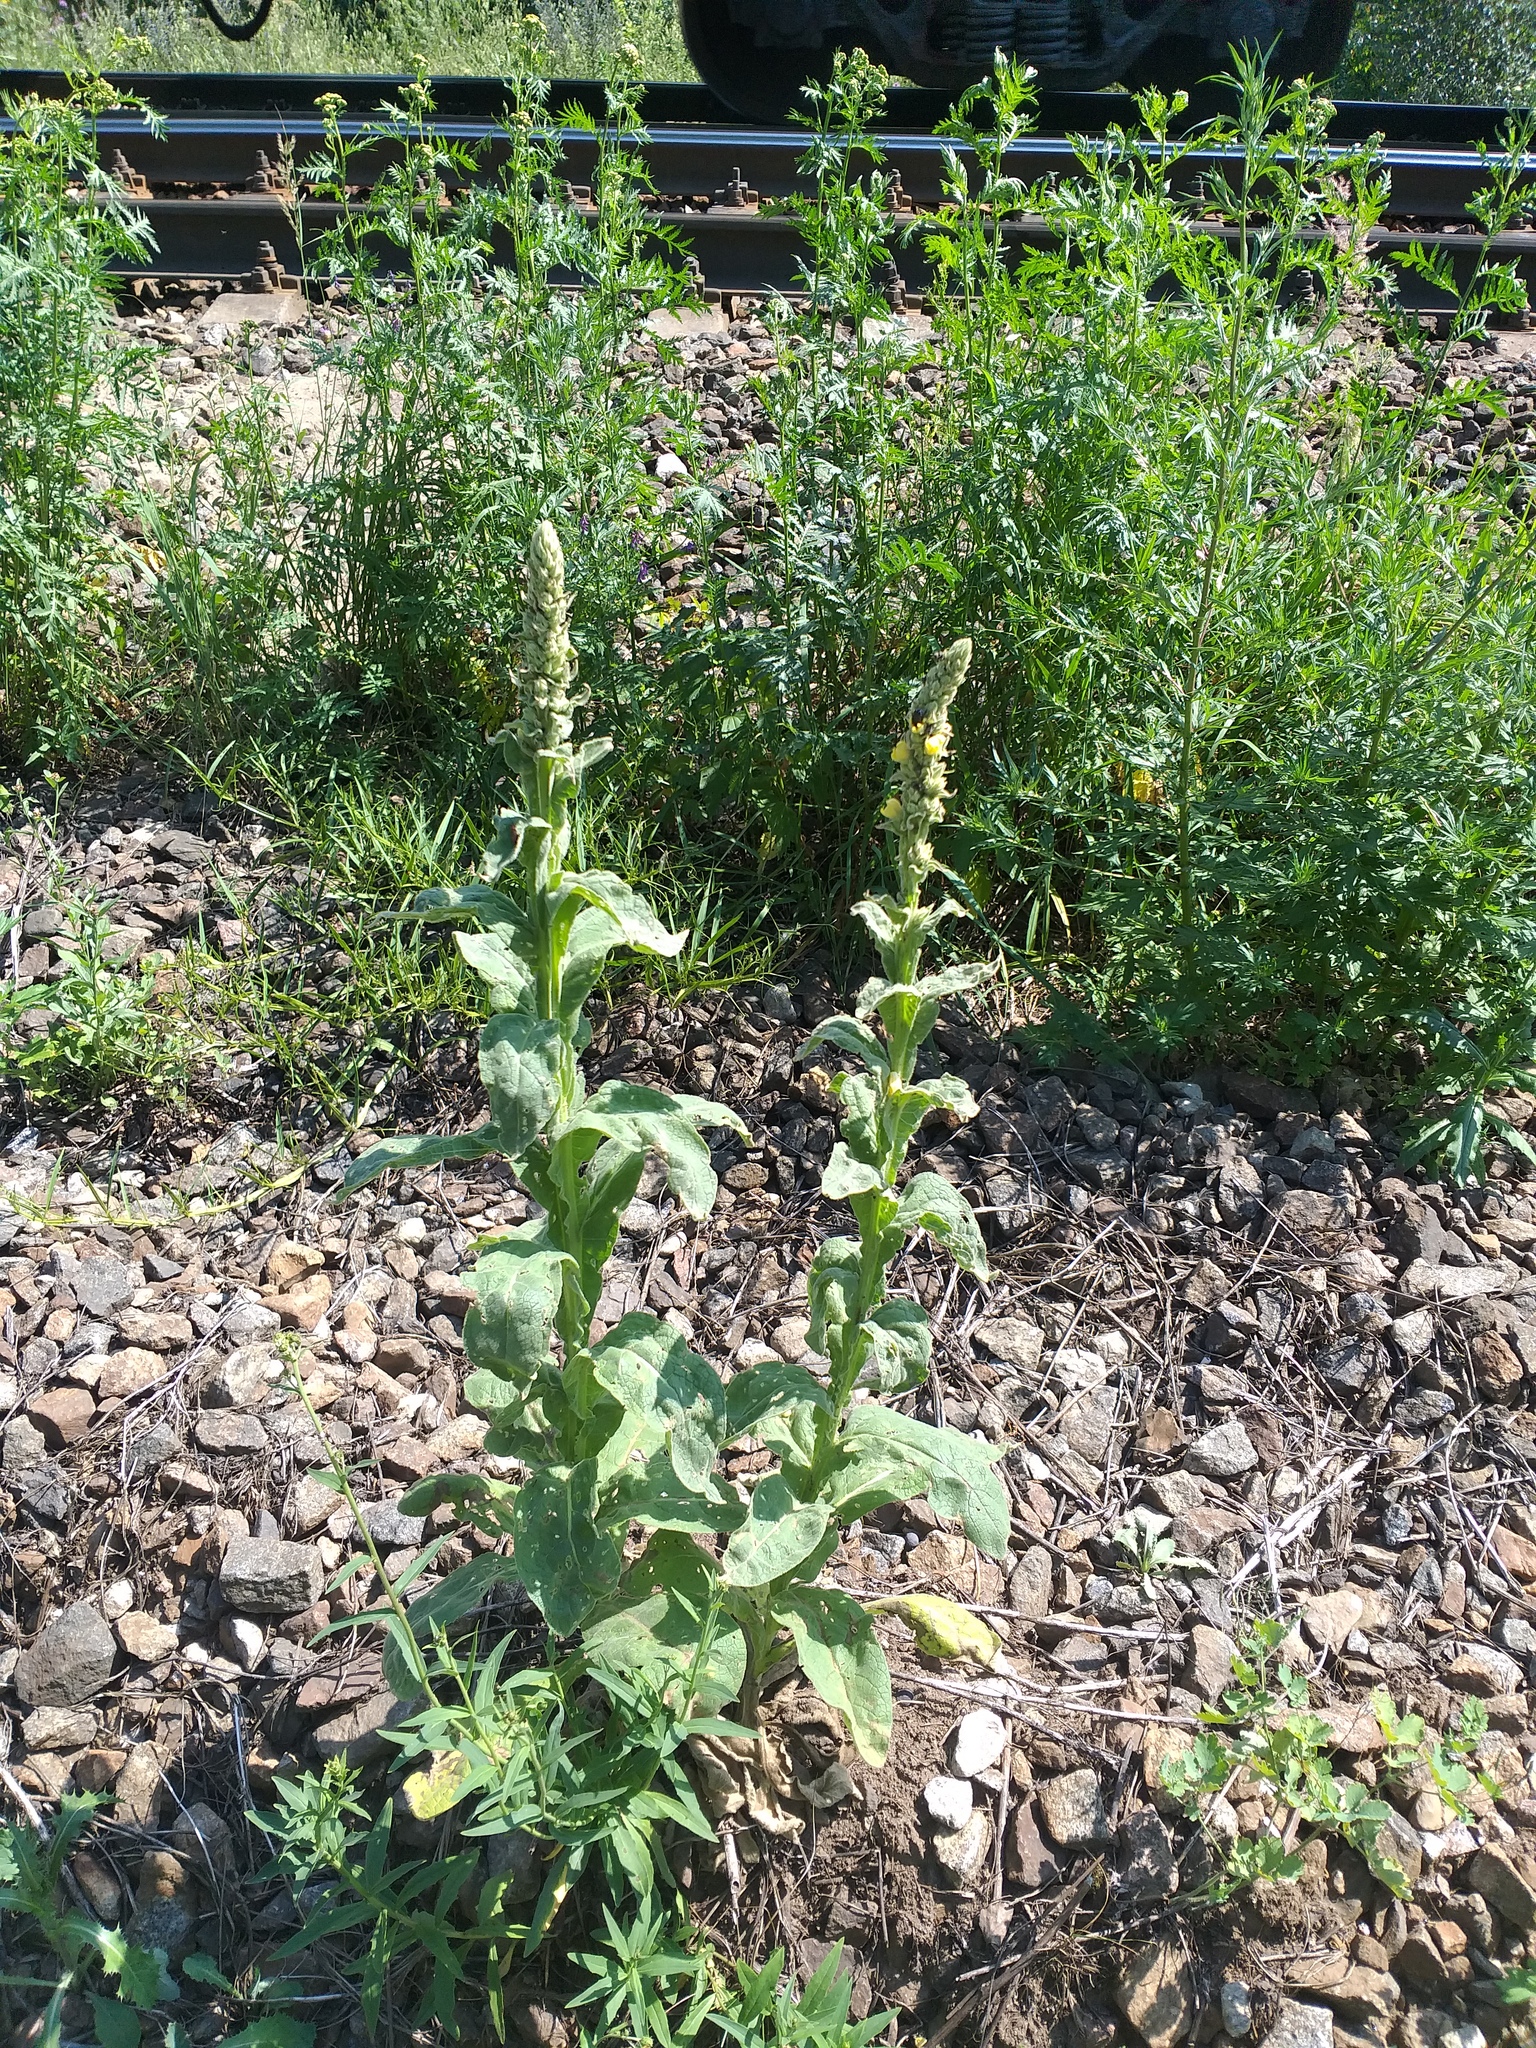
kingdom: Plantae
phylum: Tracheophyta
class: Magnoliopsida
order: Lamiales
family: Scrophulariaceae
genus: Verbascum
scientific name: Verbascum thapsus
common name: Common mullein
